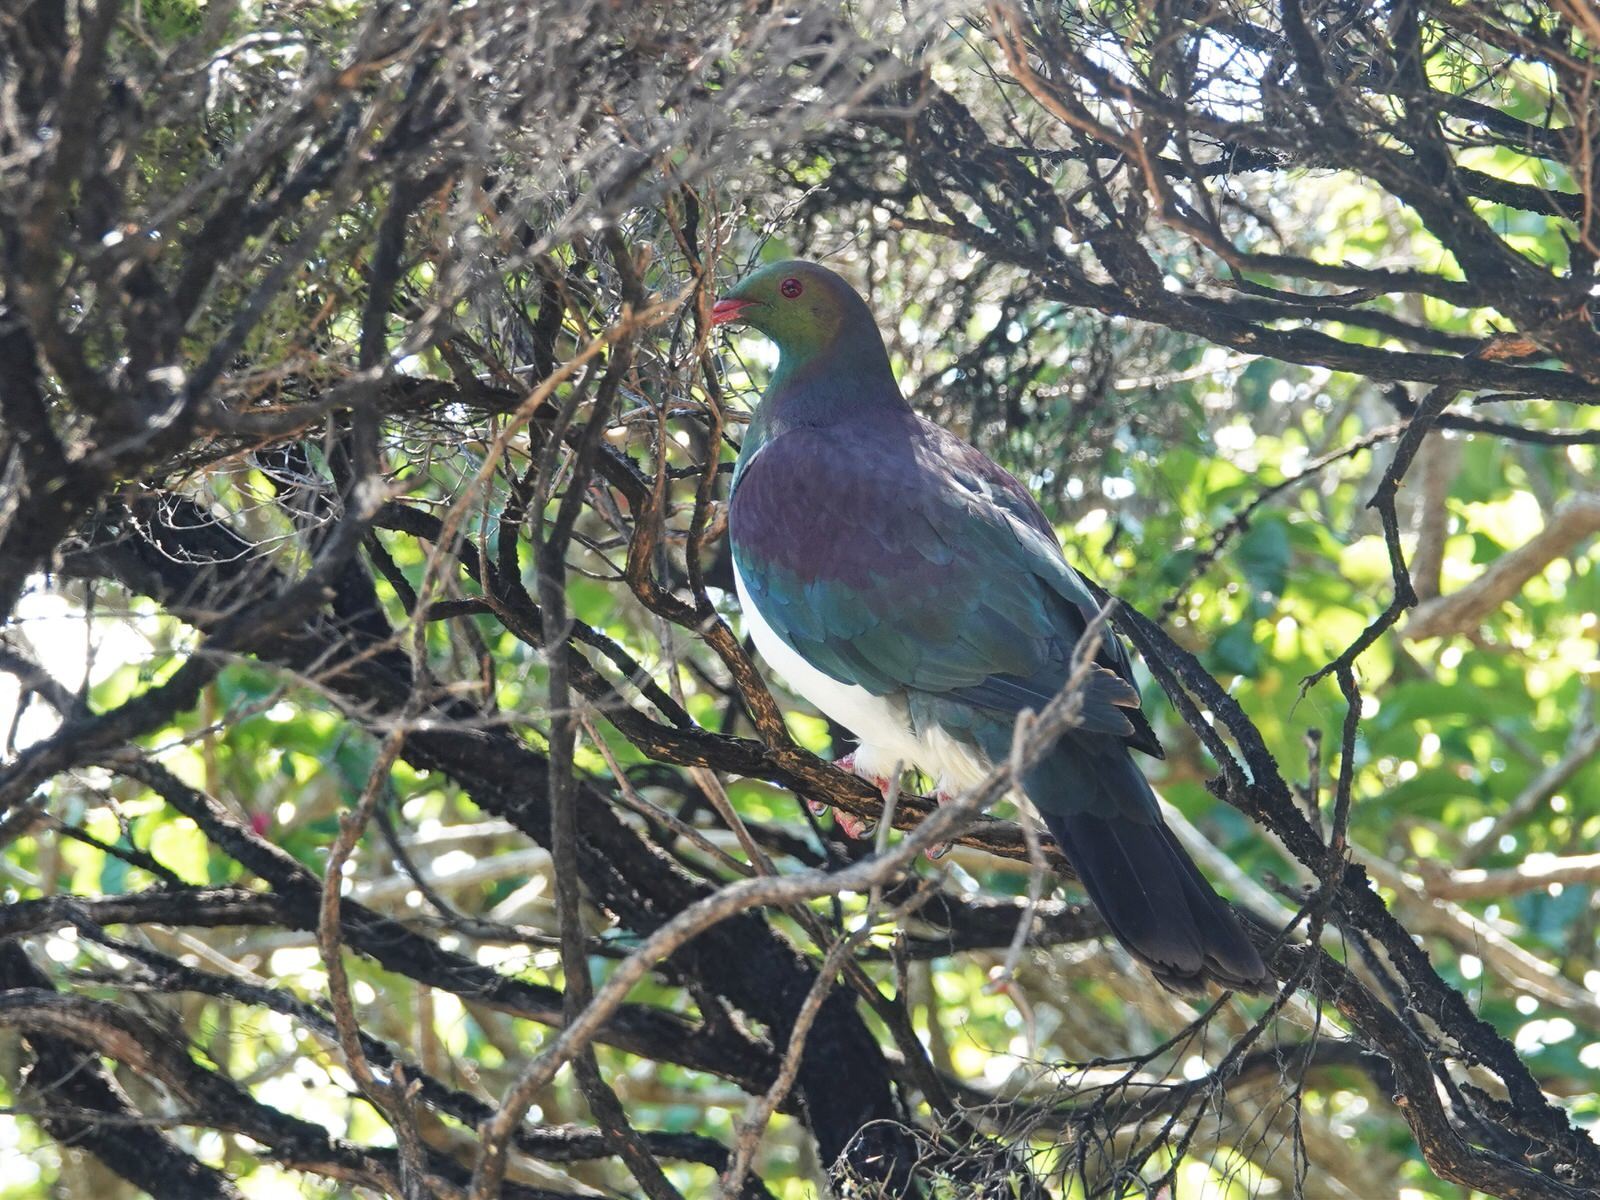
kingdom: Animalia
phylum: Chordata
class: Aves
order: Columbiformes
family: Columbidae
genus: Hemiphaga
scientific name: Hemiphaga novaeseelandiae
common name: New zealand pigeon
